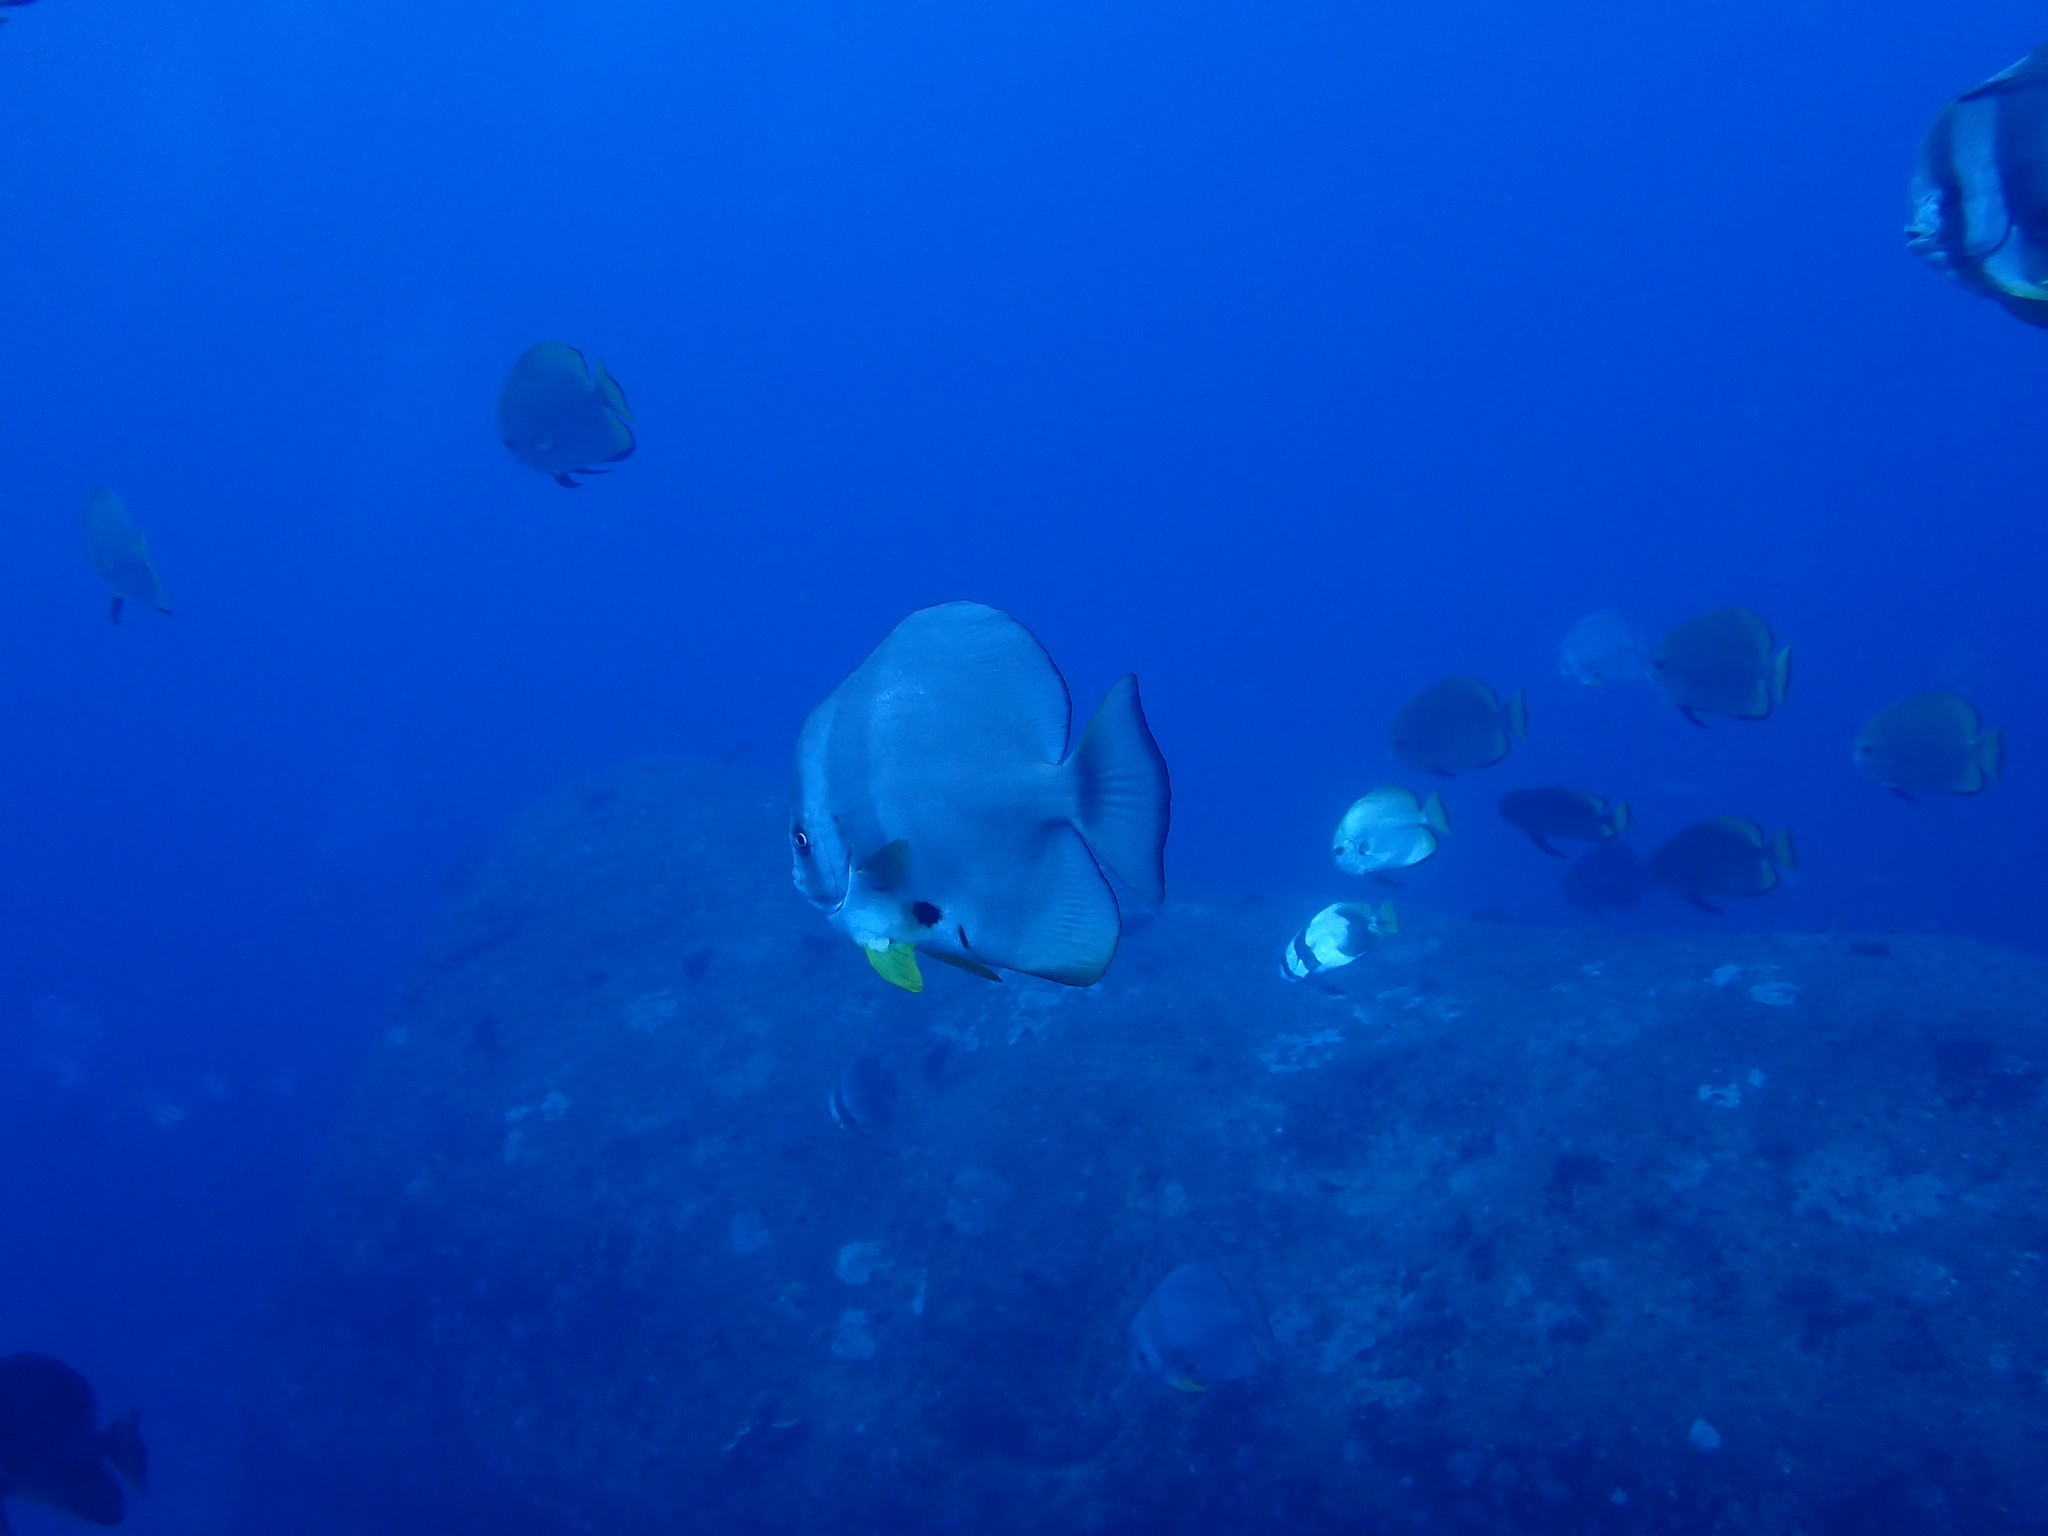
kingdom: Animalia
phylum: Chordata
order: Perciformes
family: Ephippidae
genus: Platax
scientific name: Platax teira
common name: Longfin baitfish
